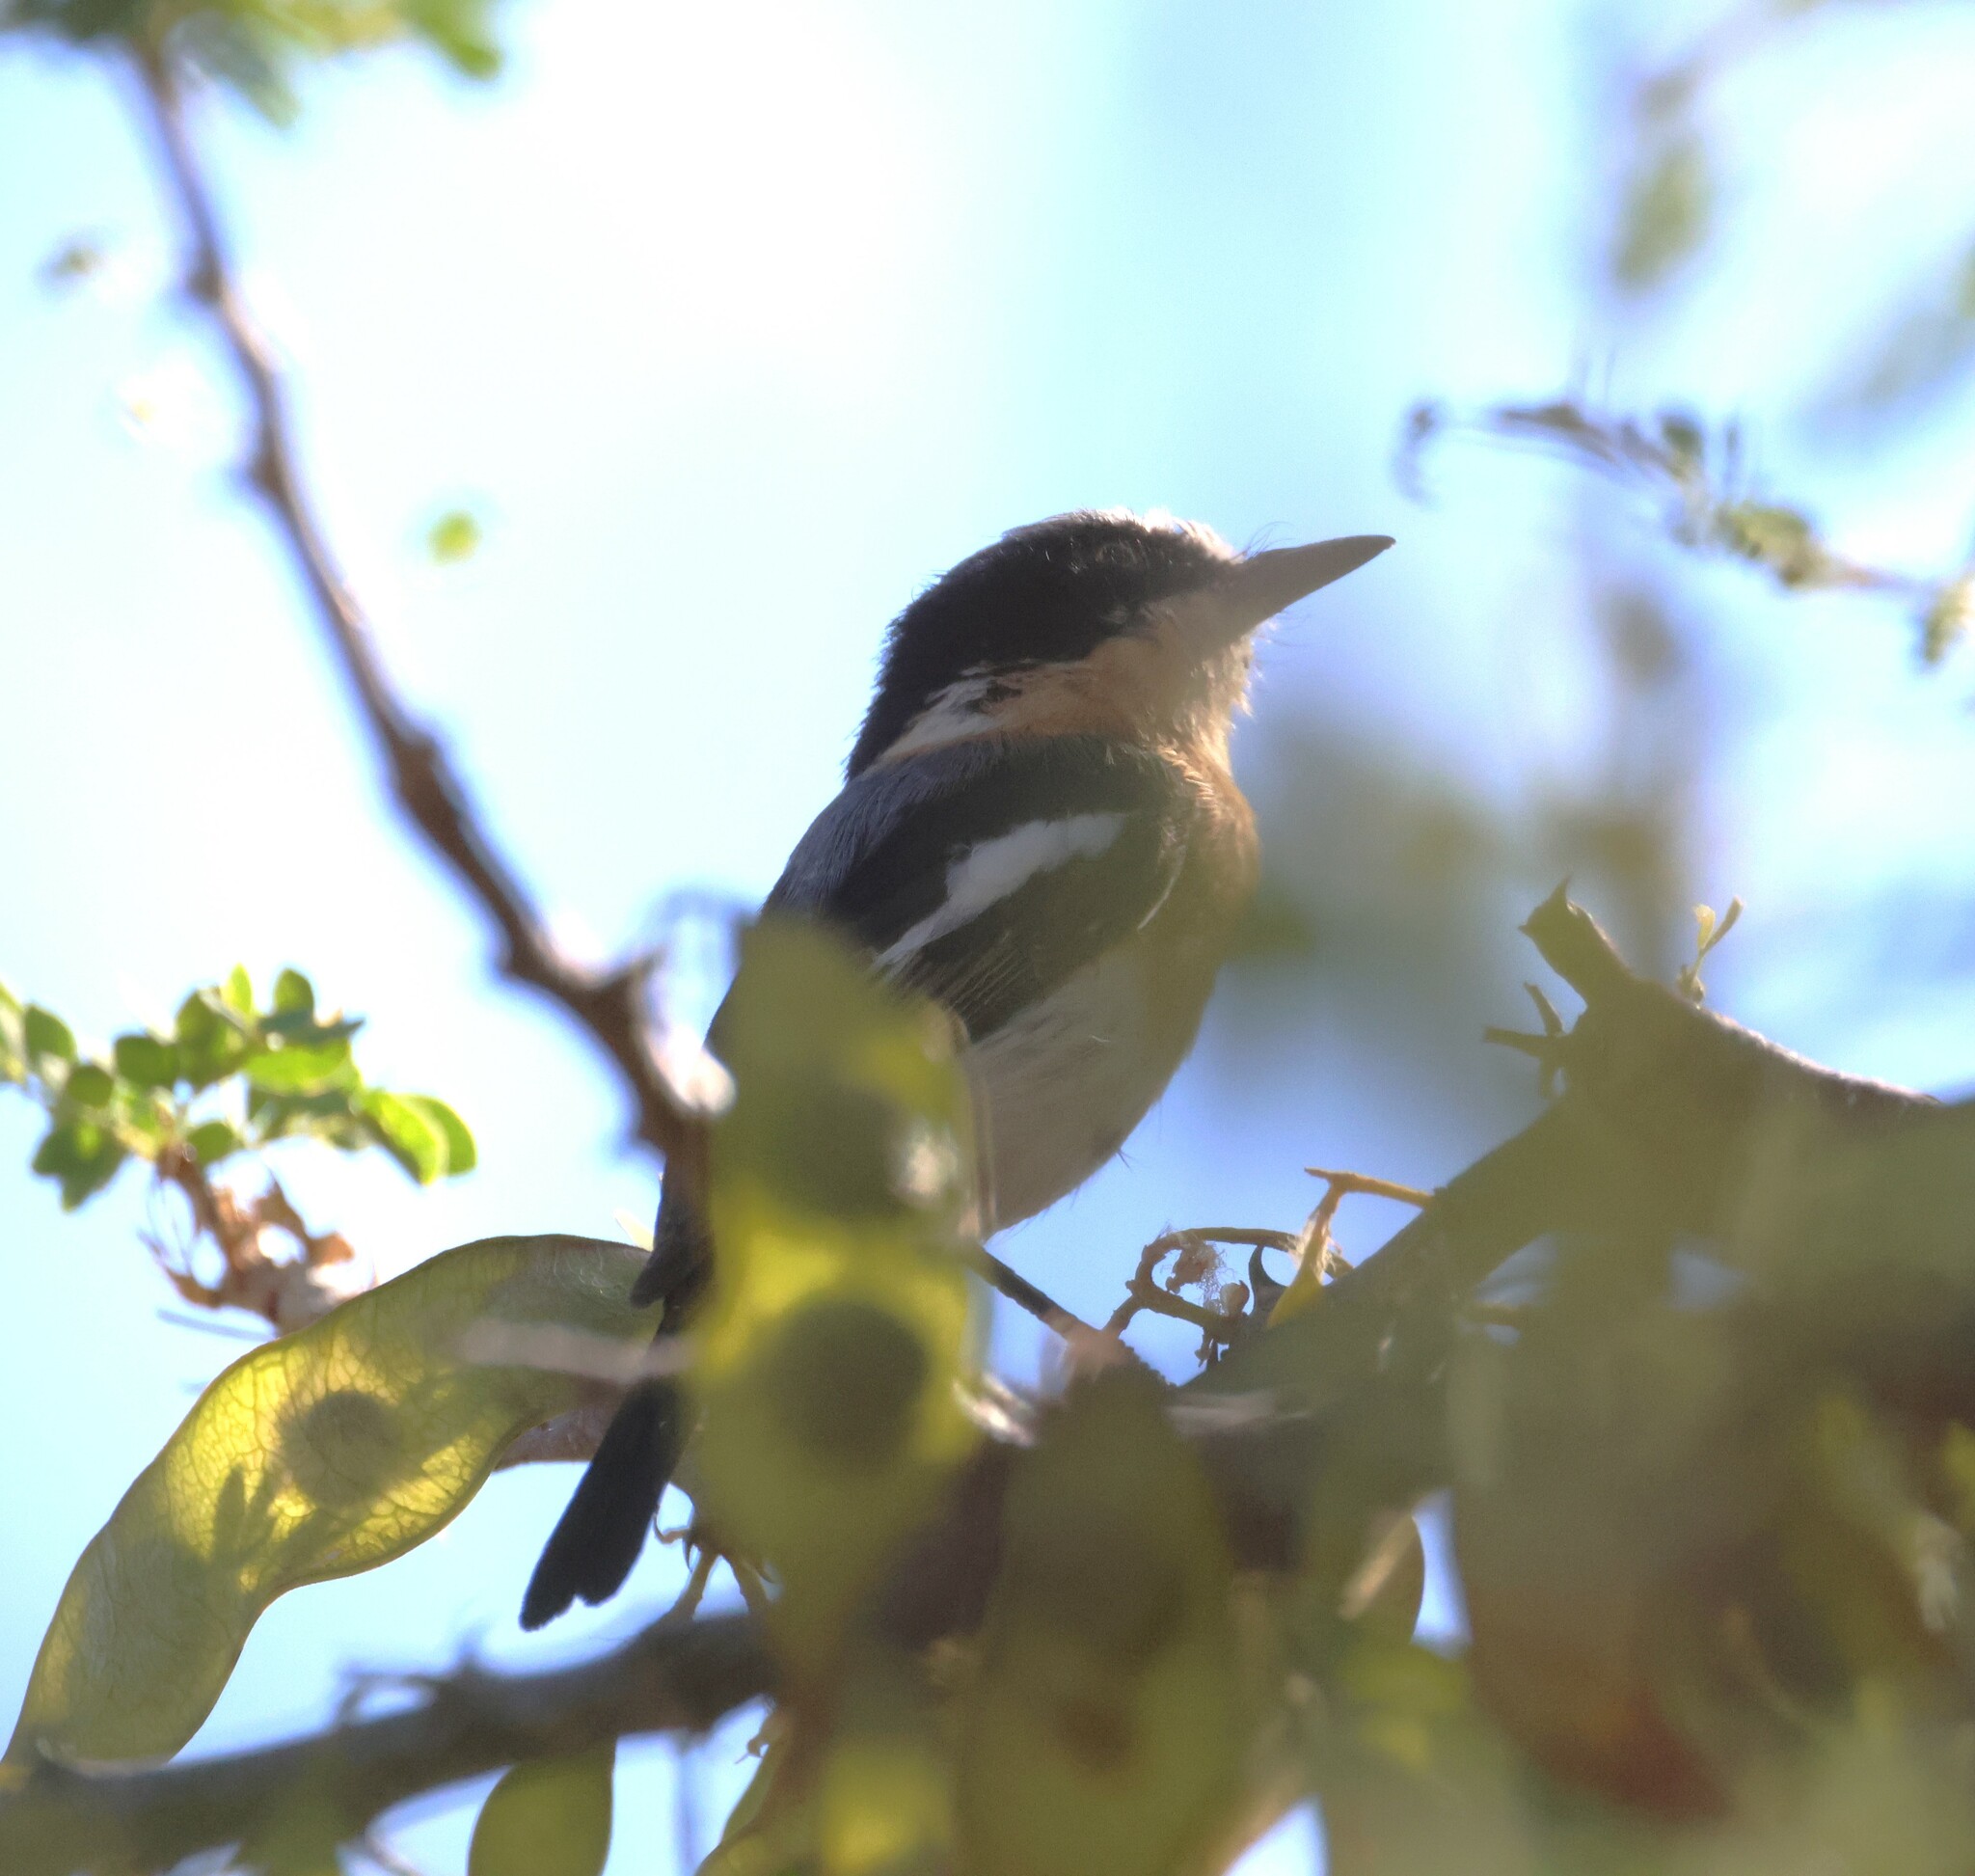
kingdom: Animalia
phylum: Chordata
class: Aves
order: Passeriformes
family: Platysteiridae
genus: Batis
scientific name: Batis pririt
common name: Pririt batis
